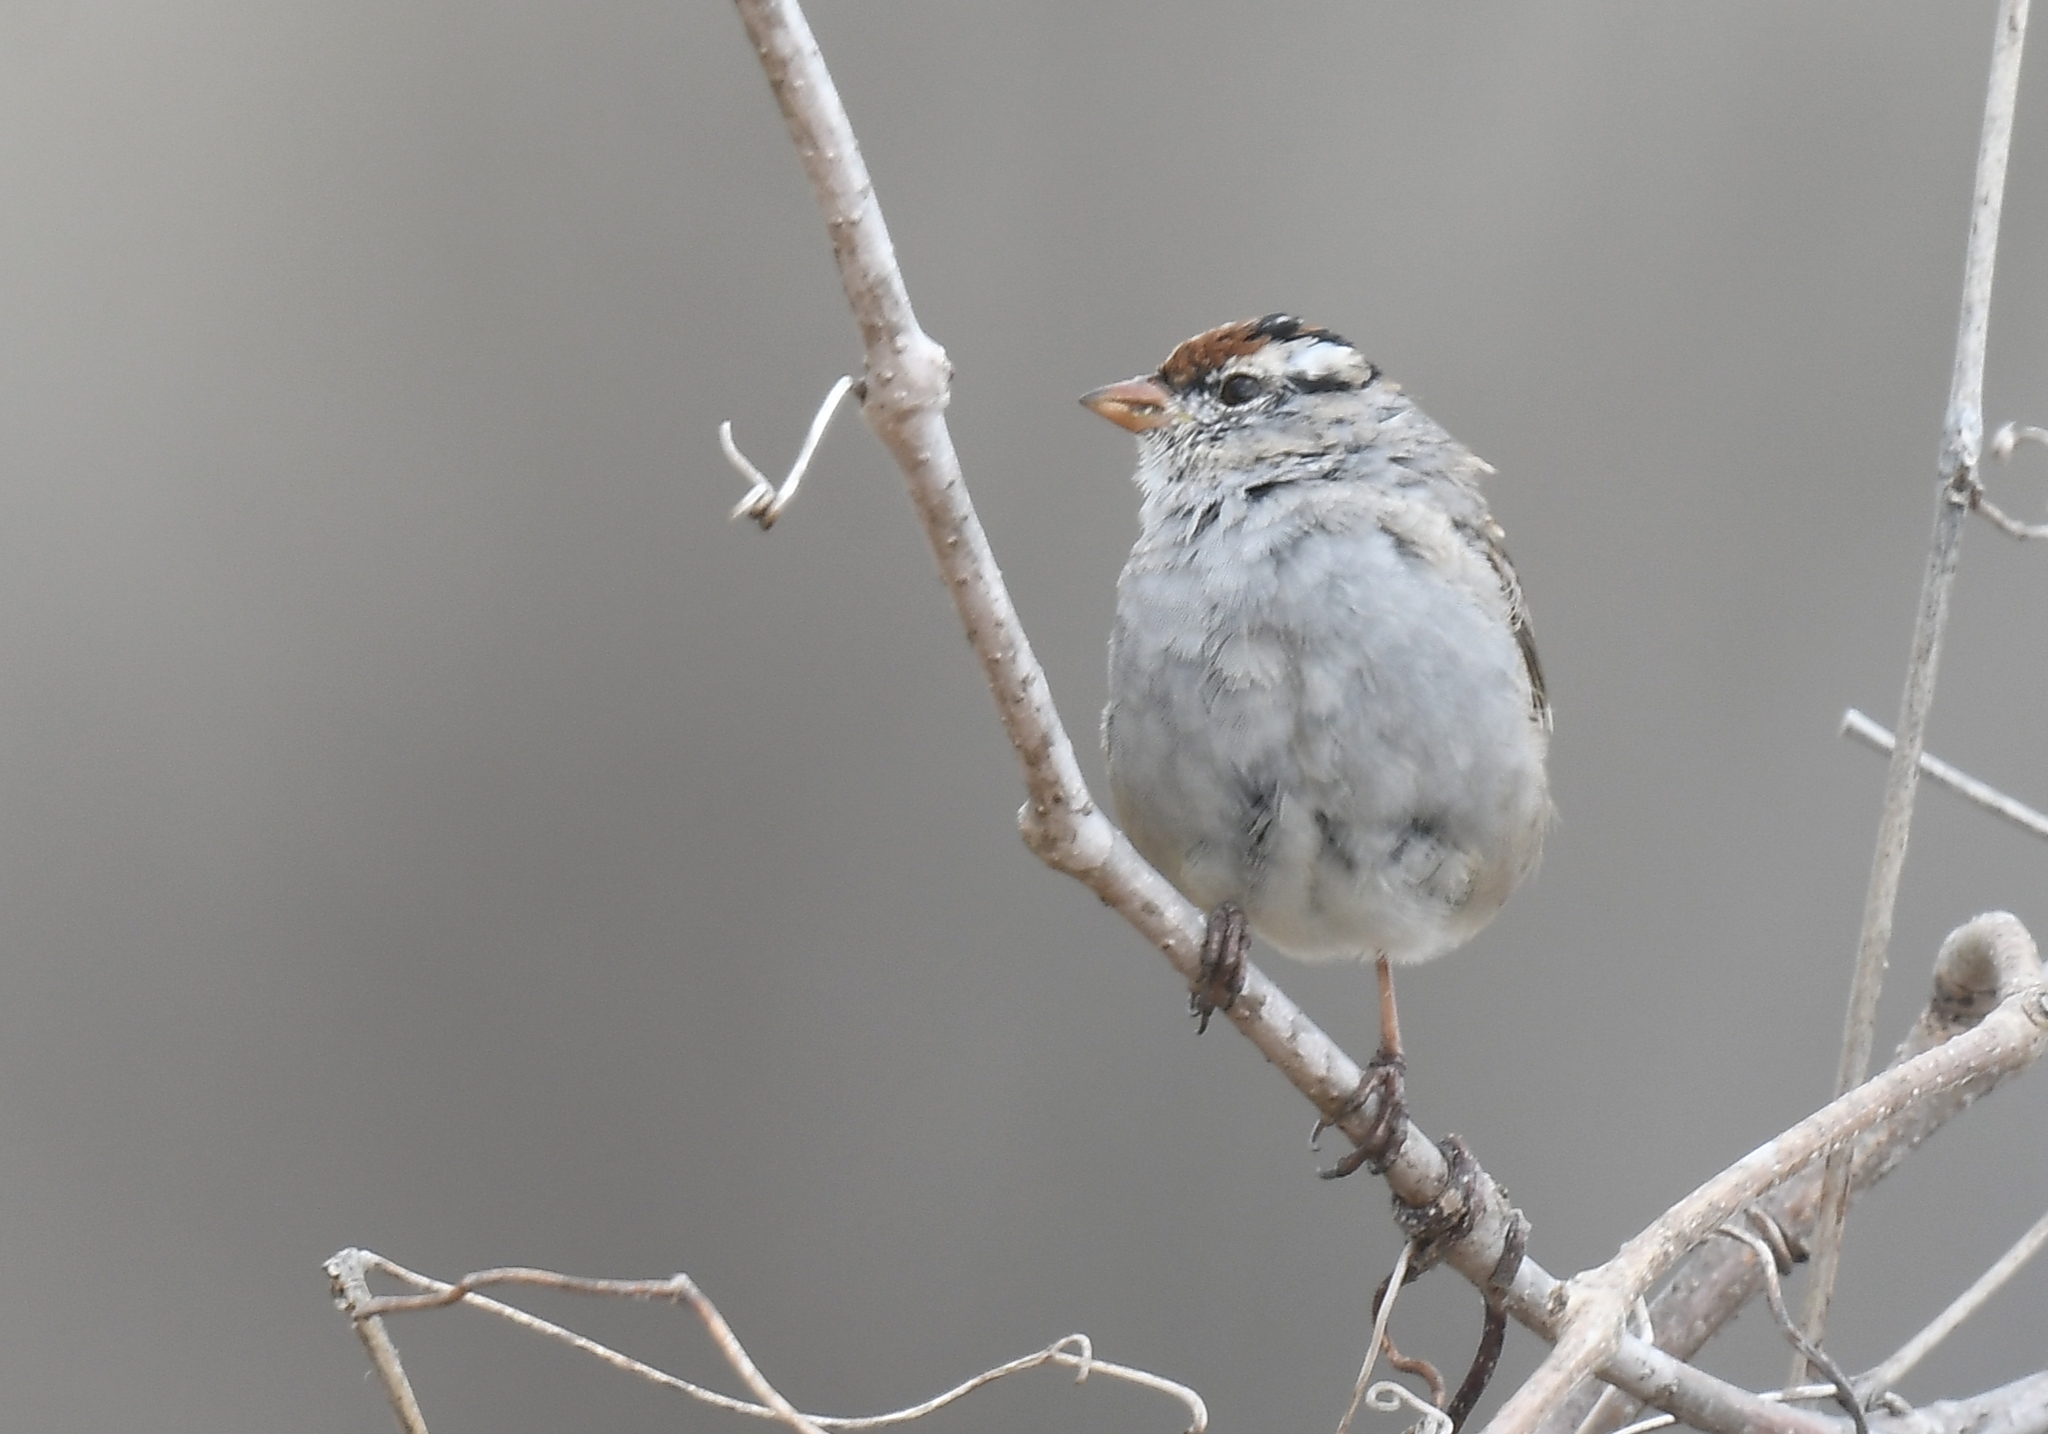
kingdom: Animalia
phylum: Chordata
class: Aves
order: Passeriformes
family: Passerellidae
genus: Zonotrichia
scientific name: Zonotrichia leucophrys
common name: White-crowned sparrow
